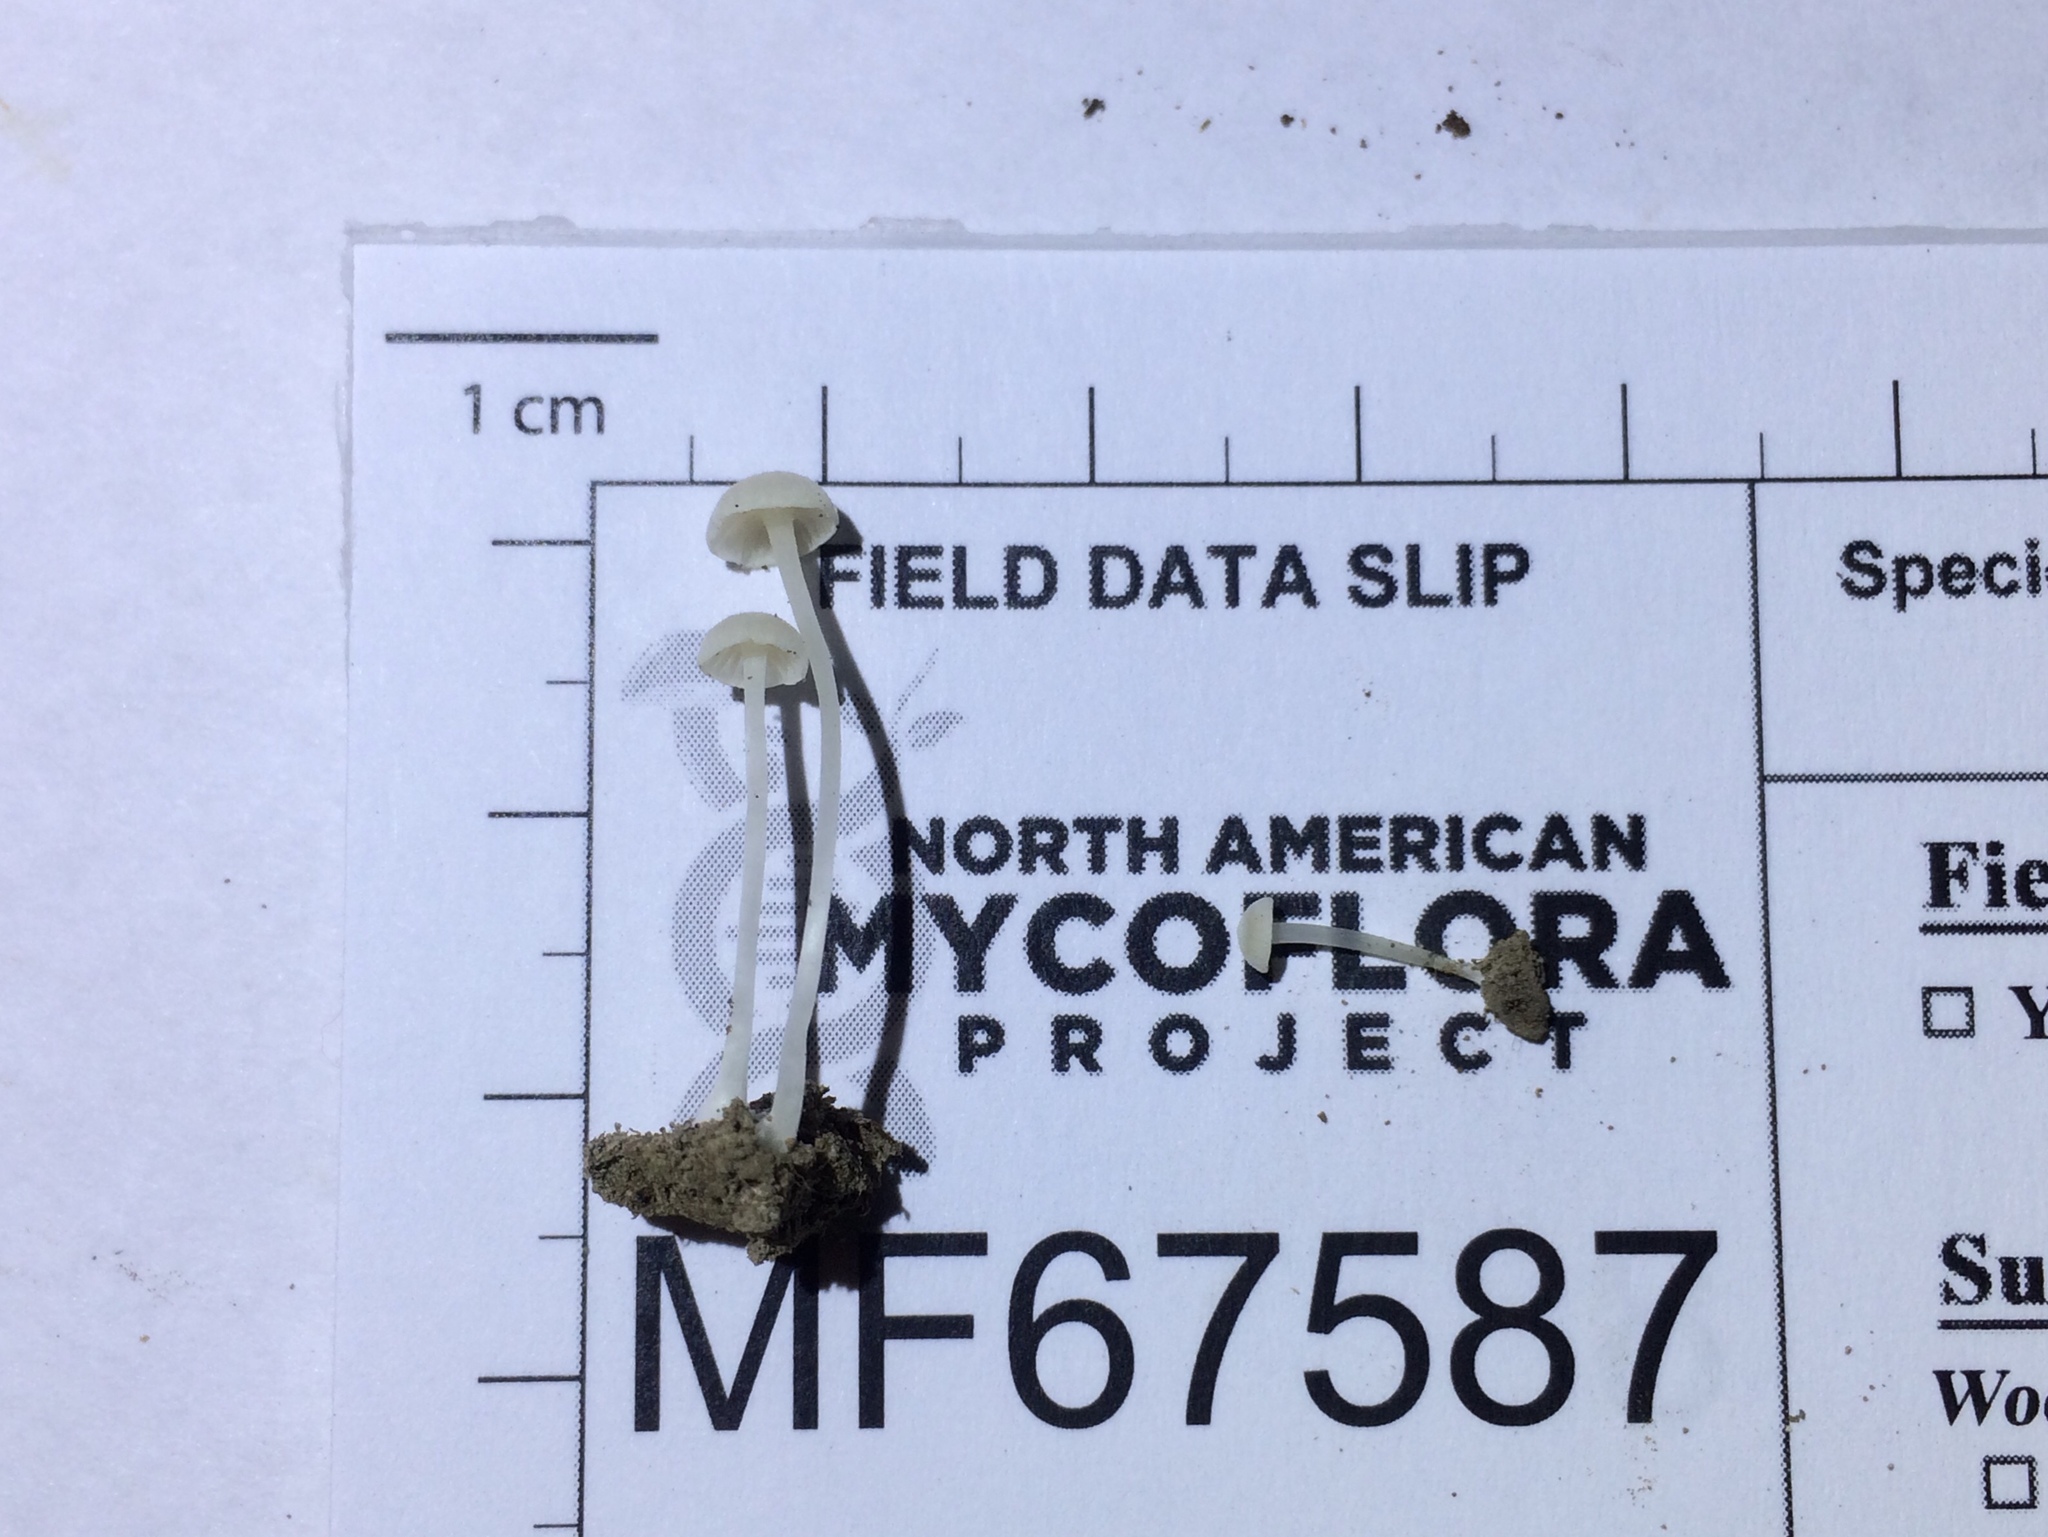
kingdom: Fungi
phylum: Basidiomycota
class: Agaricomycetes
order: Agaricales
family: Entolomataceae
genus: Entoloma
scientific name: Entoloma sericellum
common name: Cream pinkgill
